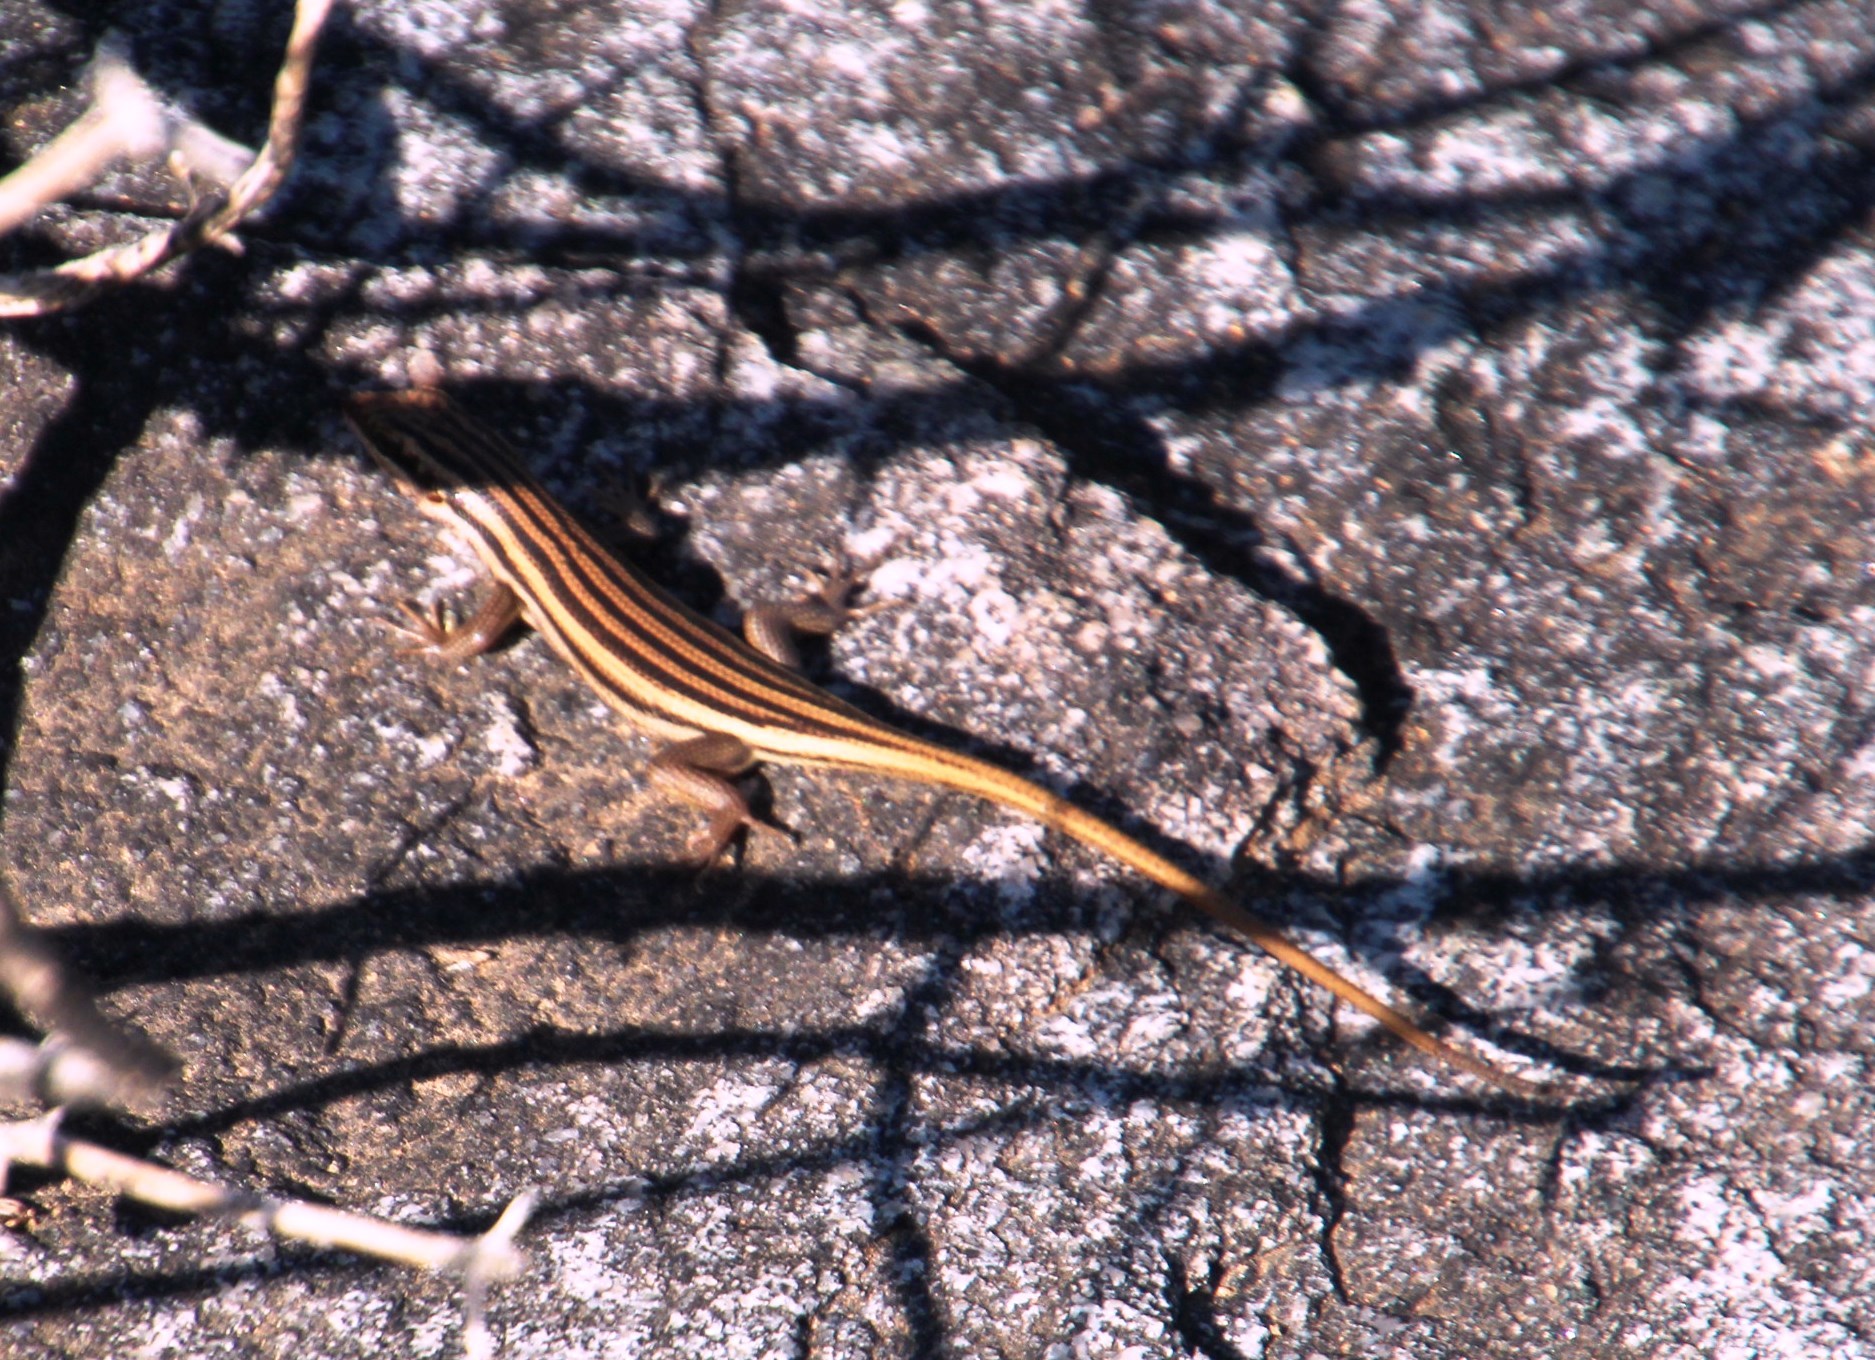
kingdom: Animalia
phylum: Chordata
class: Squamata
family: Scincidae
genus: Trachylepis
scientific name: Trachylepis sulcata
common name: Western rock skink
